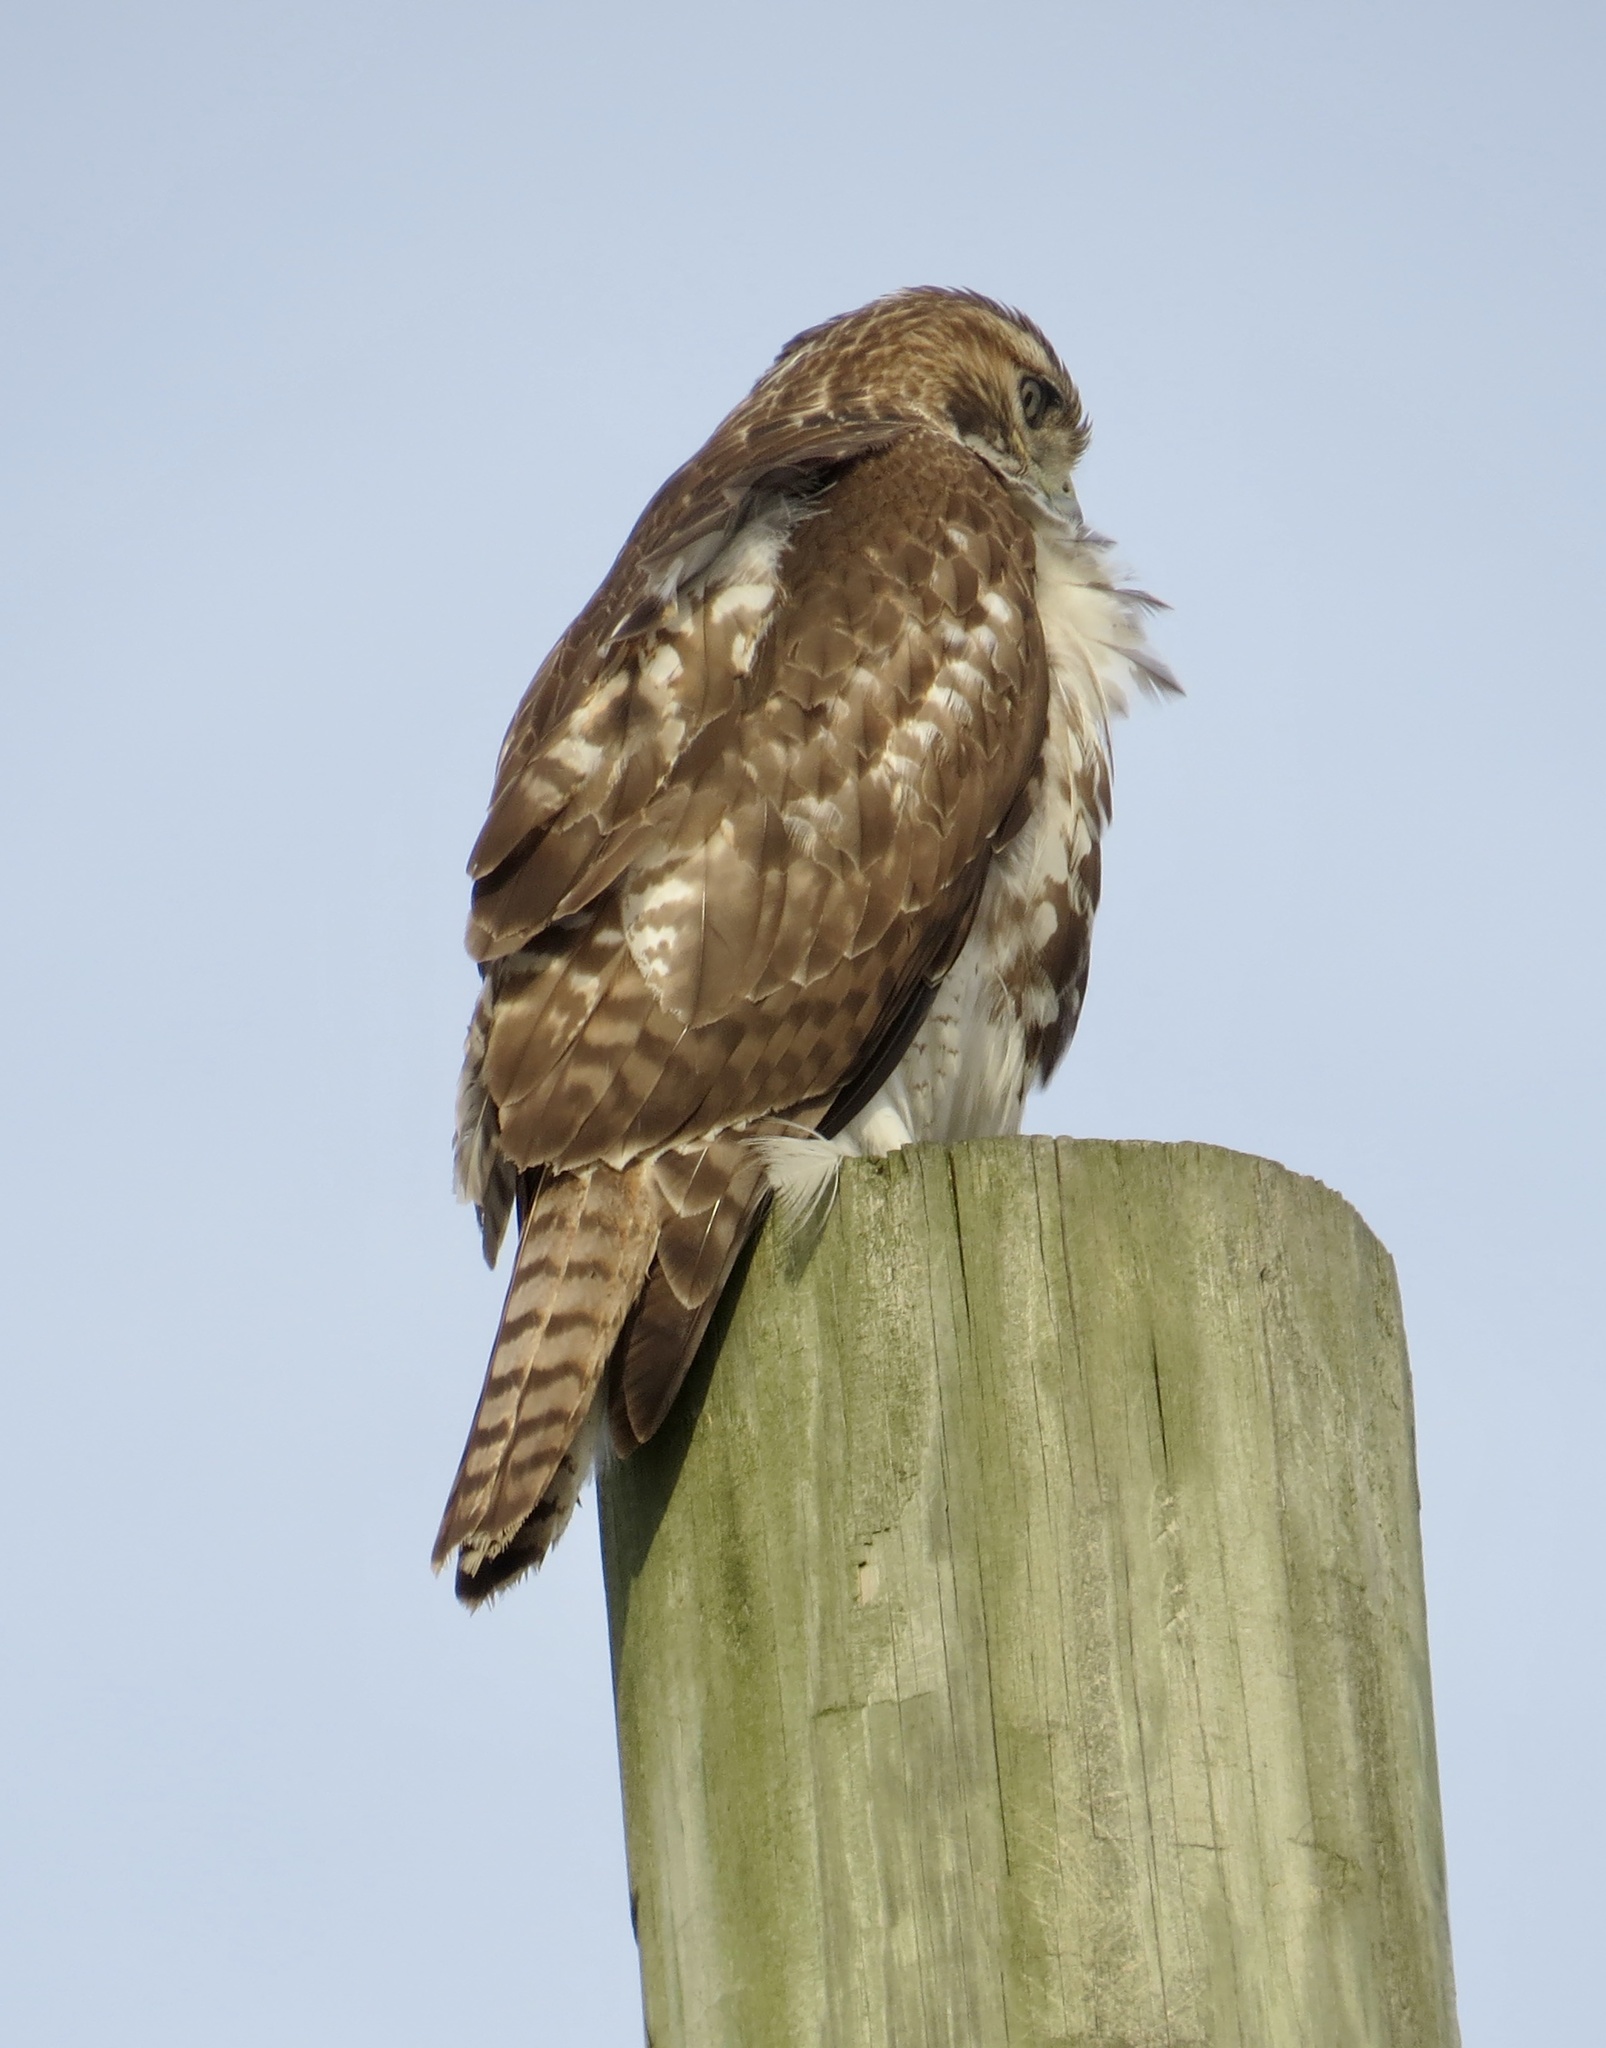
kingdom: Animalia
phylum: Chordata
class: Aves
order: Accipitriformes
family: Accipitridae
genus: Buteo
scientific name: Buteo jamaicensis
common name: Red-tailed hawk
